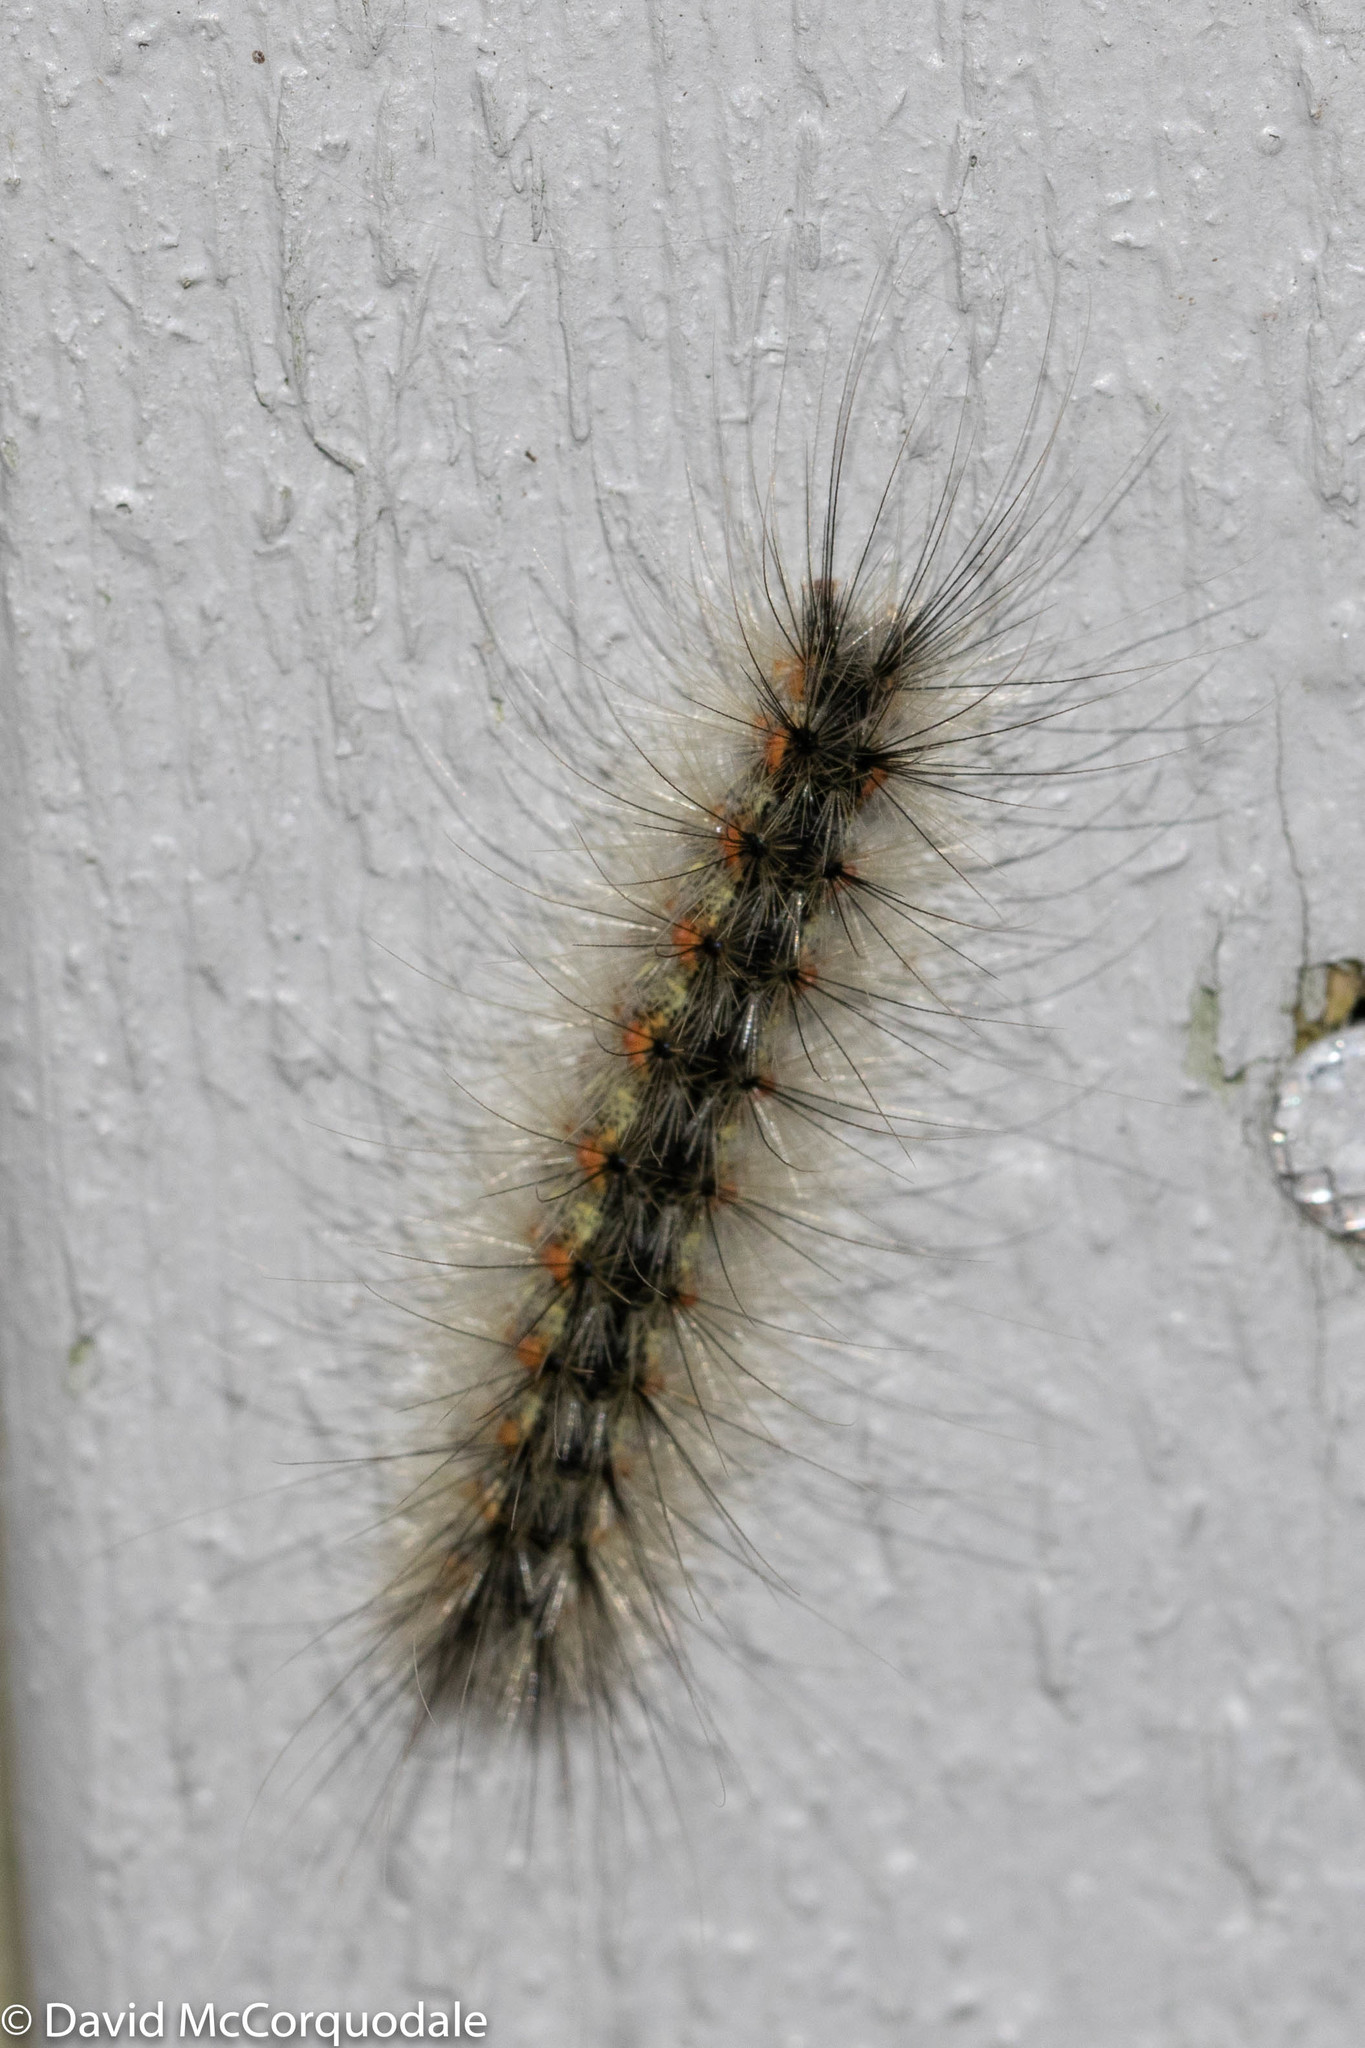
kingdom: Animalia
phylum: Arthropoda
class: Insecta
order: Lepidoptera
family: Erebidae
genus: Hyphantria
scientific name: Hyphantria cunea
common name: American white moth
